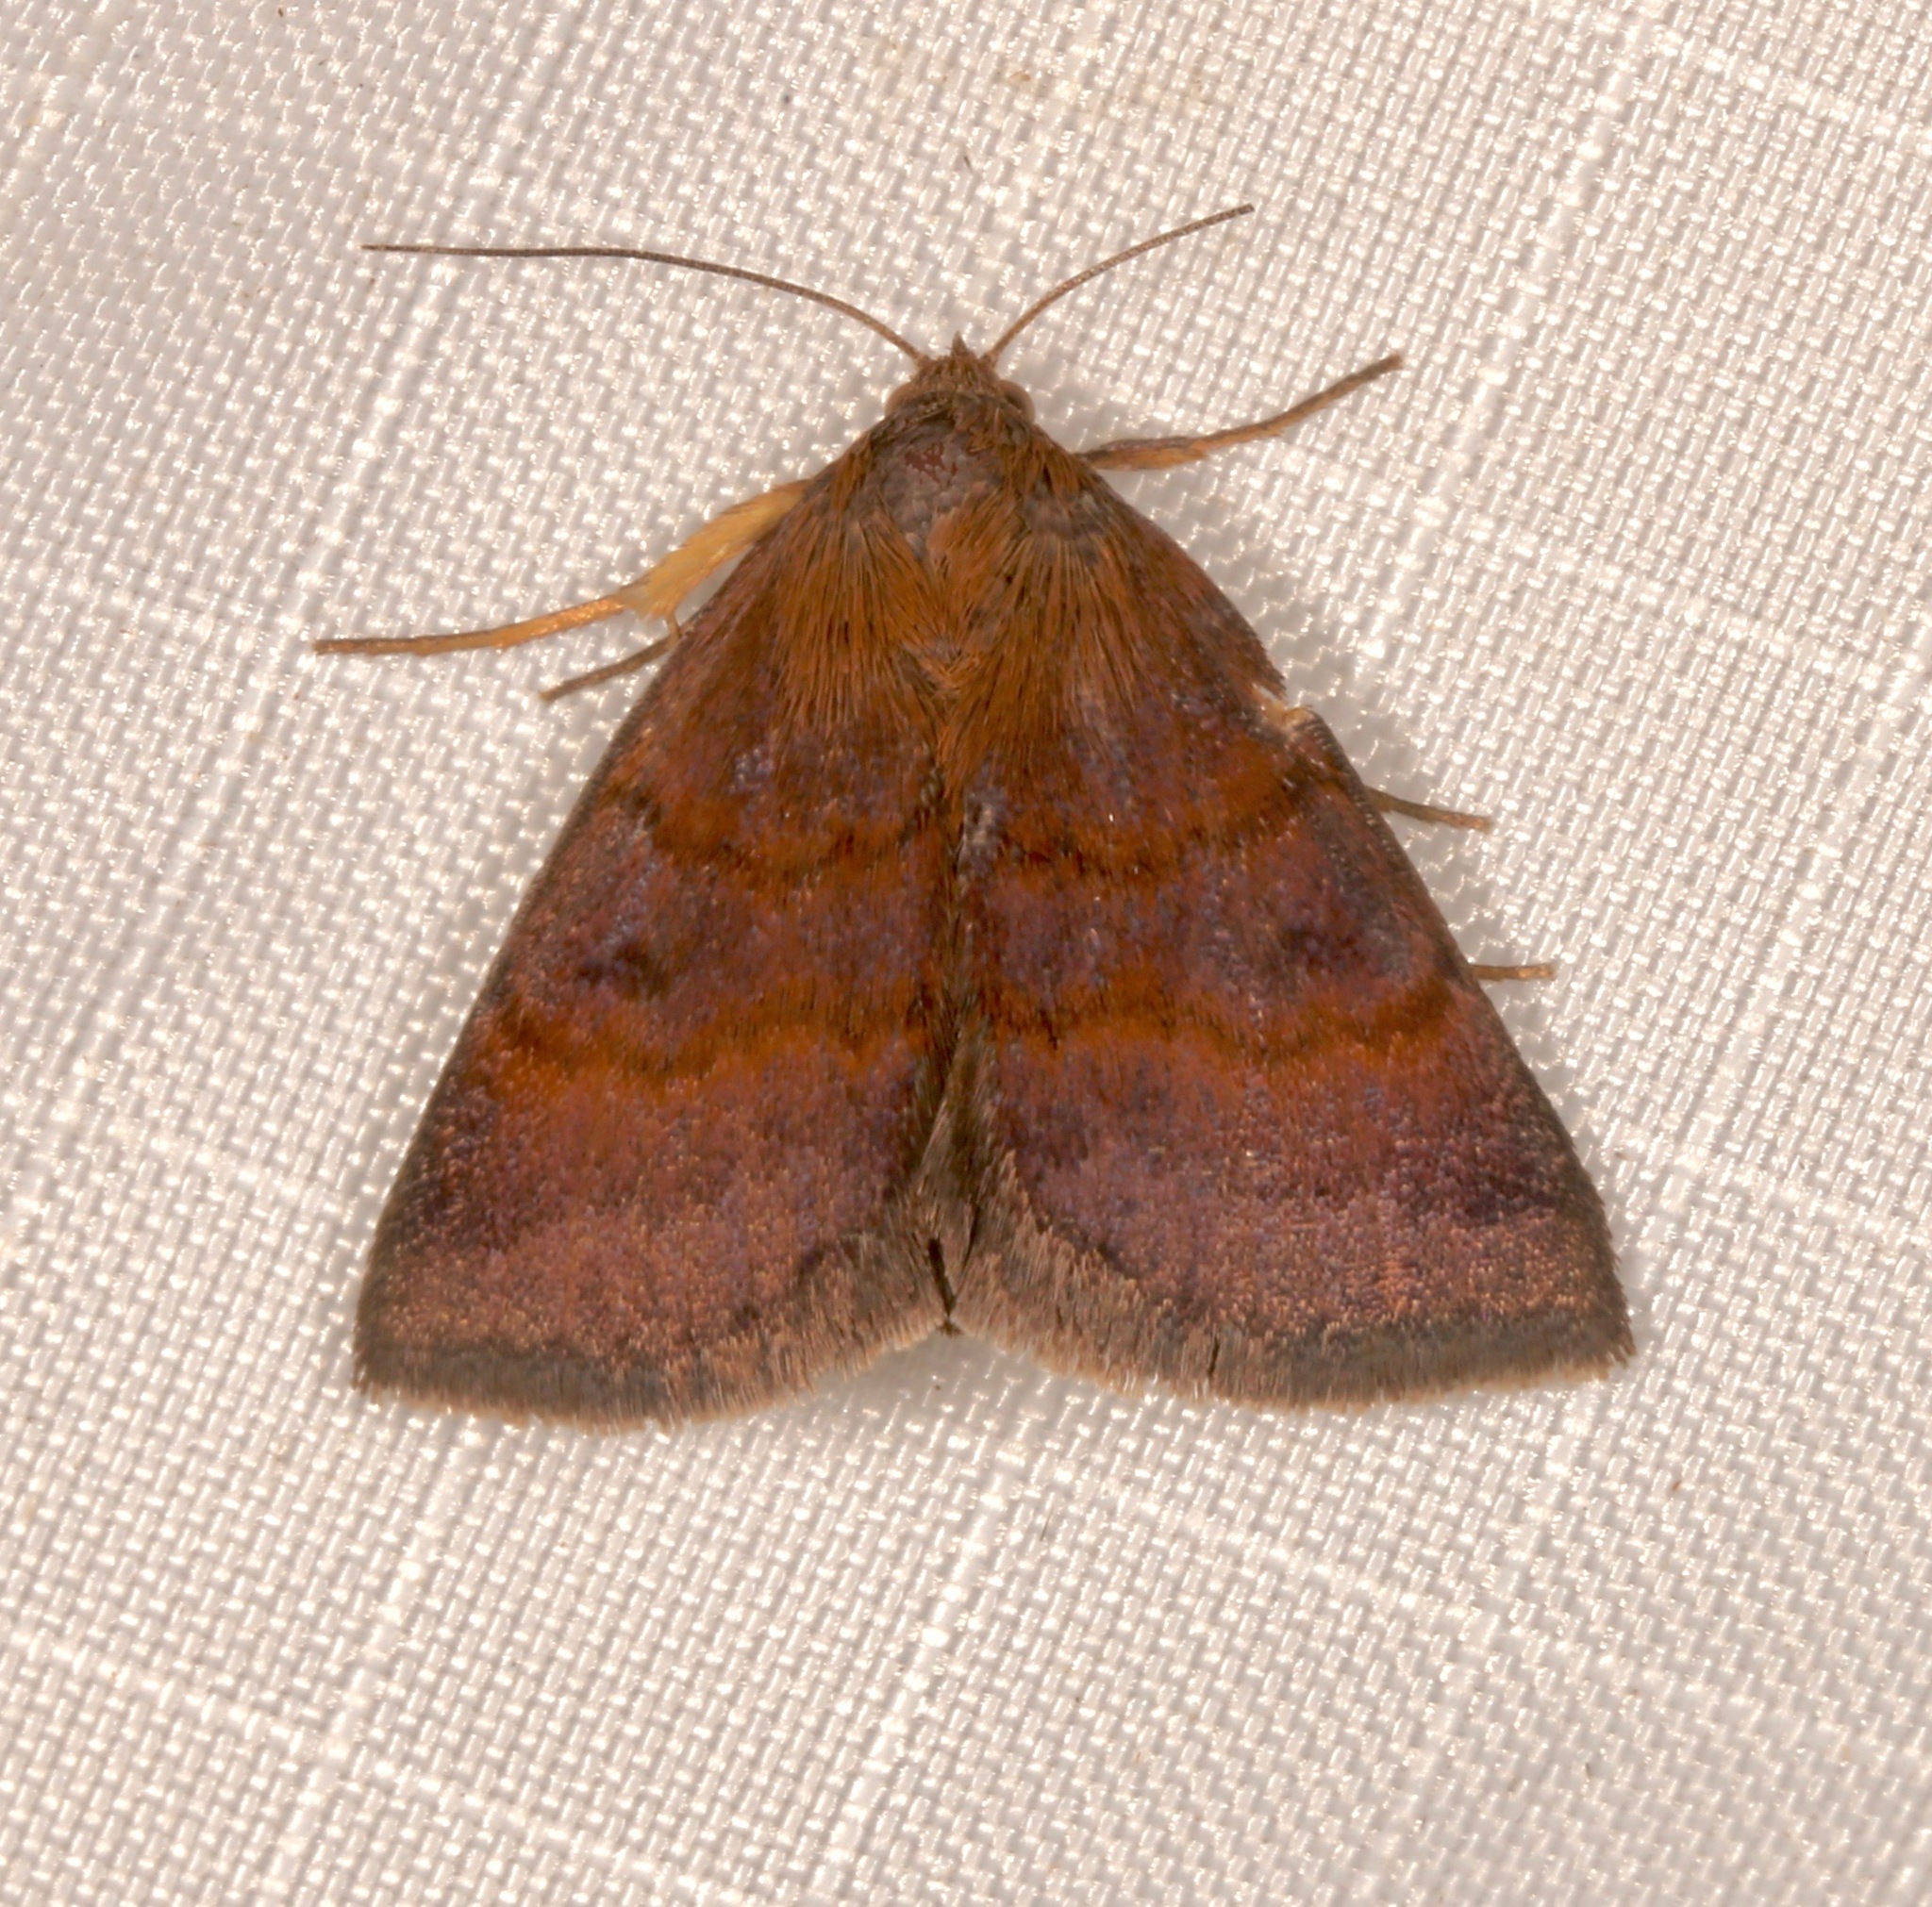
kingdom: Animalia
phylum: Arthropoda
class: Insecta
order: Lepidoptera
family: Erebidae
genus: Argyrostrotis
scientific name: Argyrostrotis deleta
